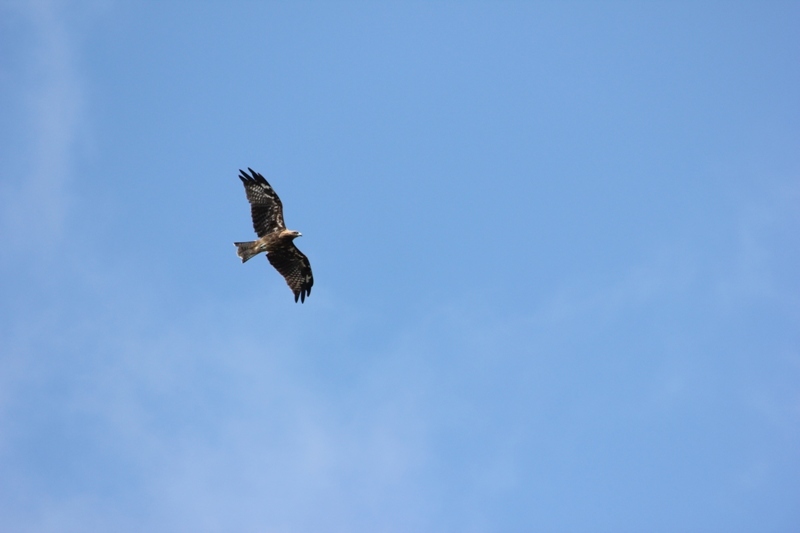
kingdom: Animalia
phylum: Chordata
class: Aves
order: Accipitriformes
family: Accipitridae
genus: Milvus
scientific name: Milvus migrans
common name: Black kite
